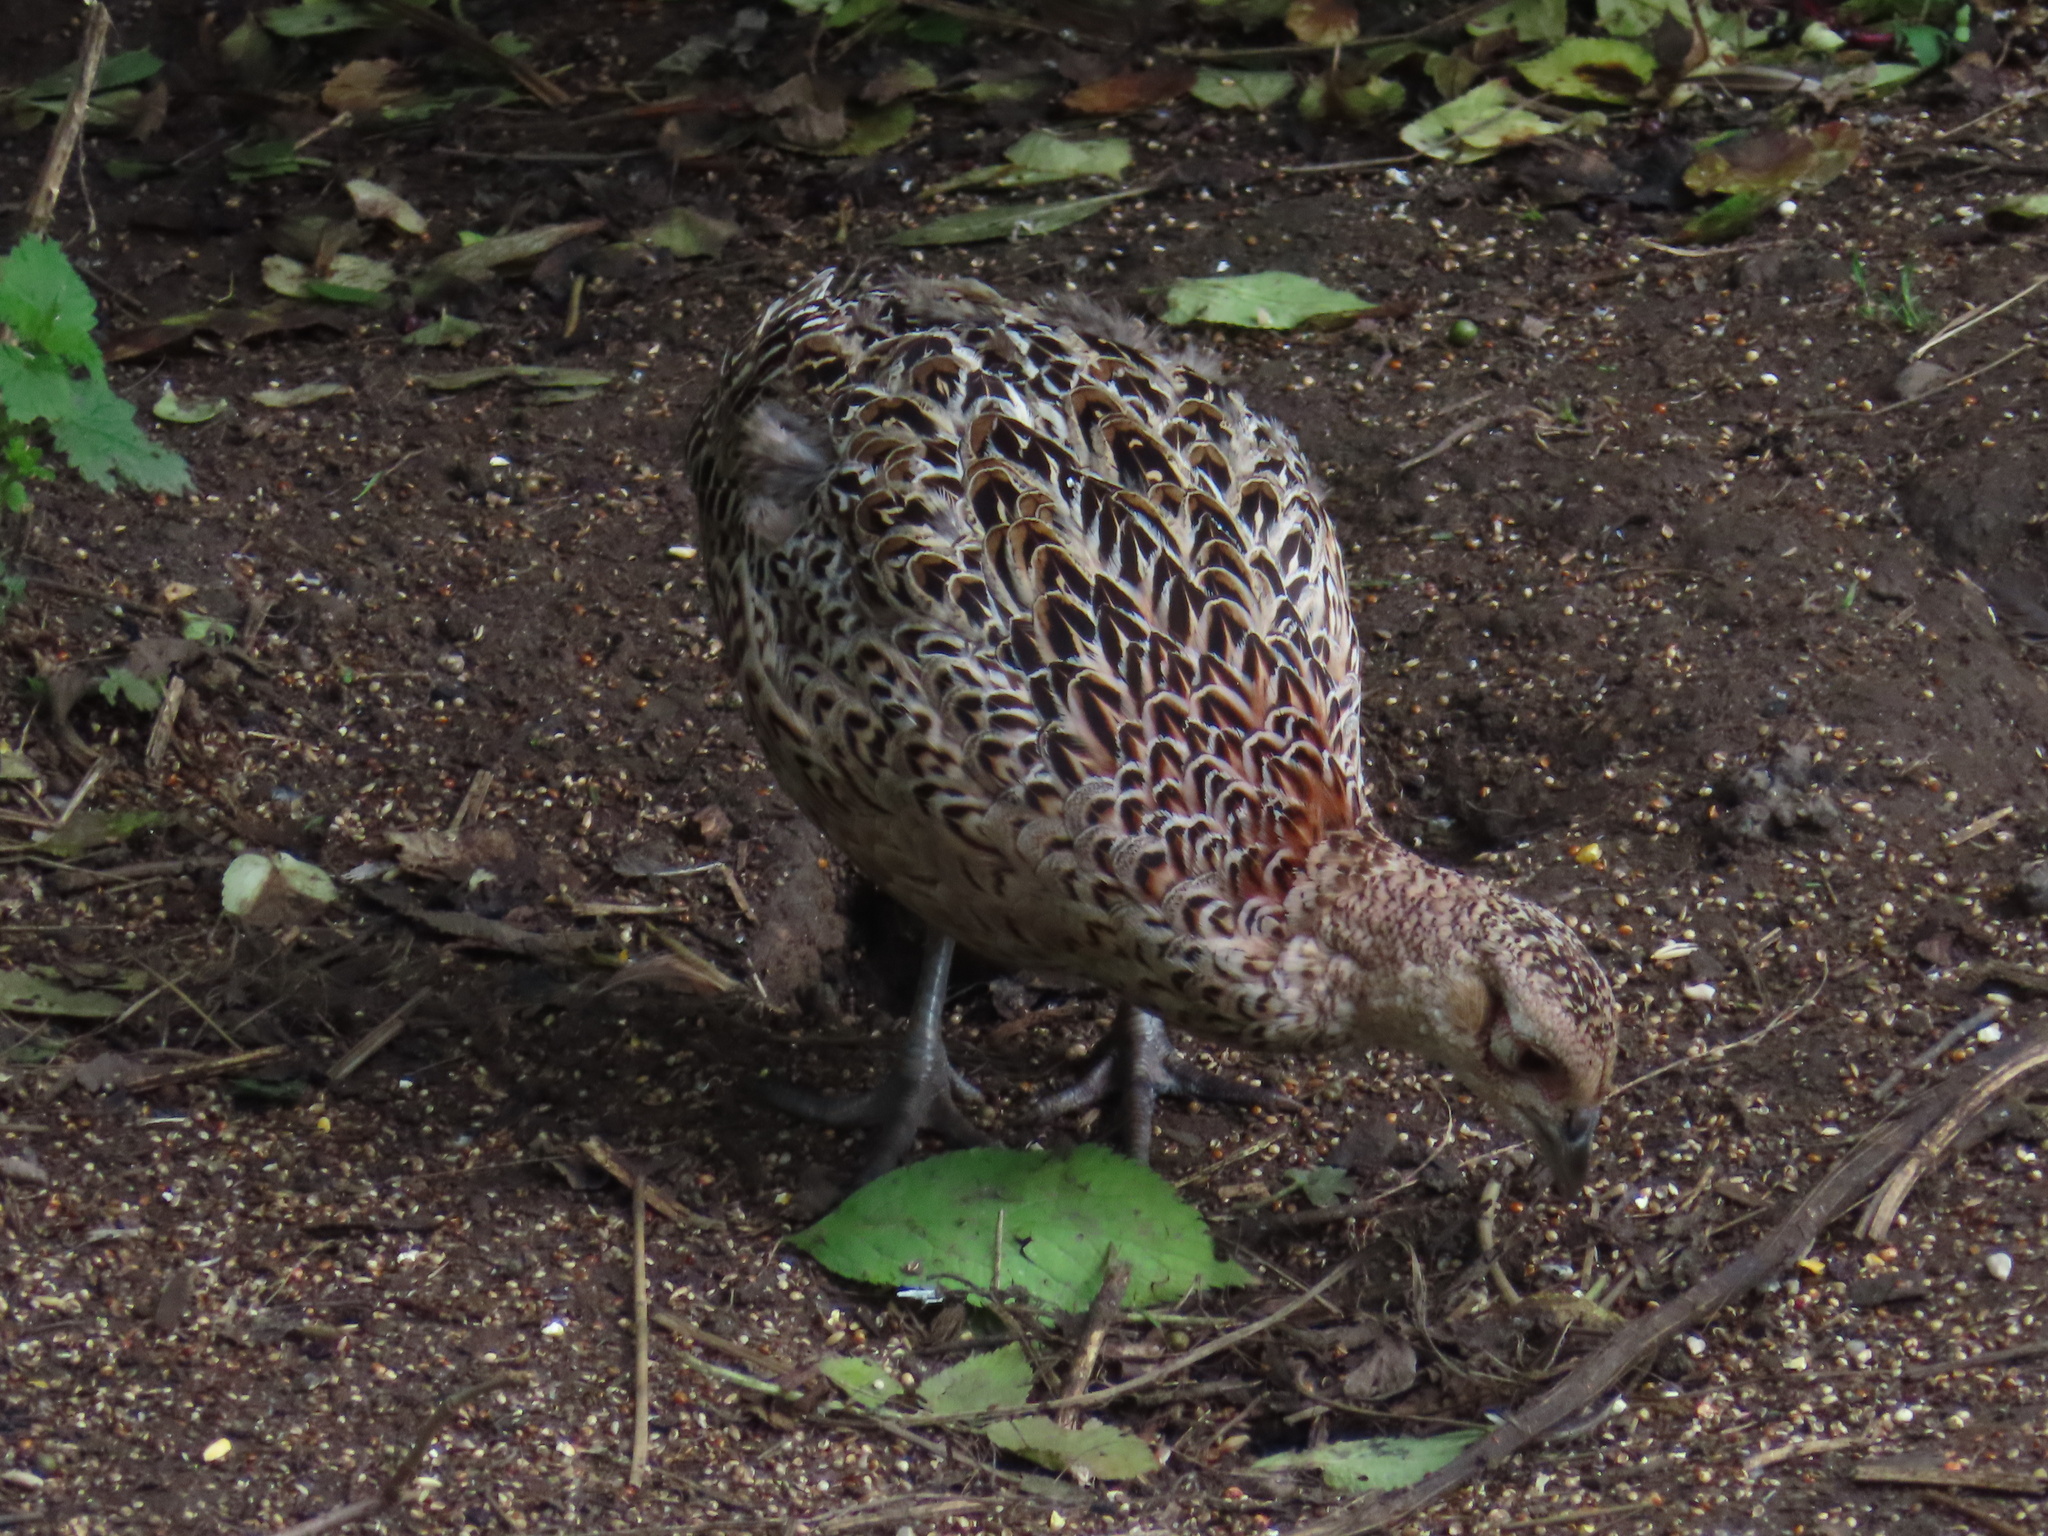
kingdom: Animalia
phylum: Chordata
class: Aves
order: Galliformes
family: Phasianidae
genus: Phasianus
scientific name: Phasianus colchicus
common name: Common pheasant
